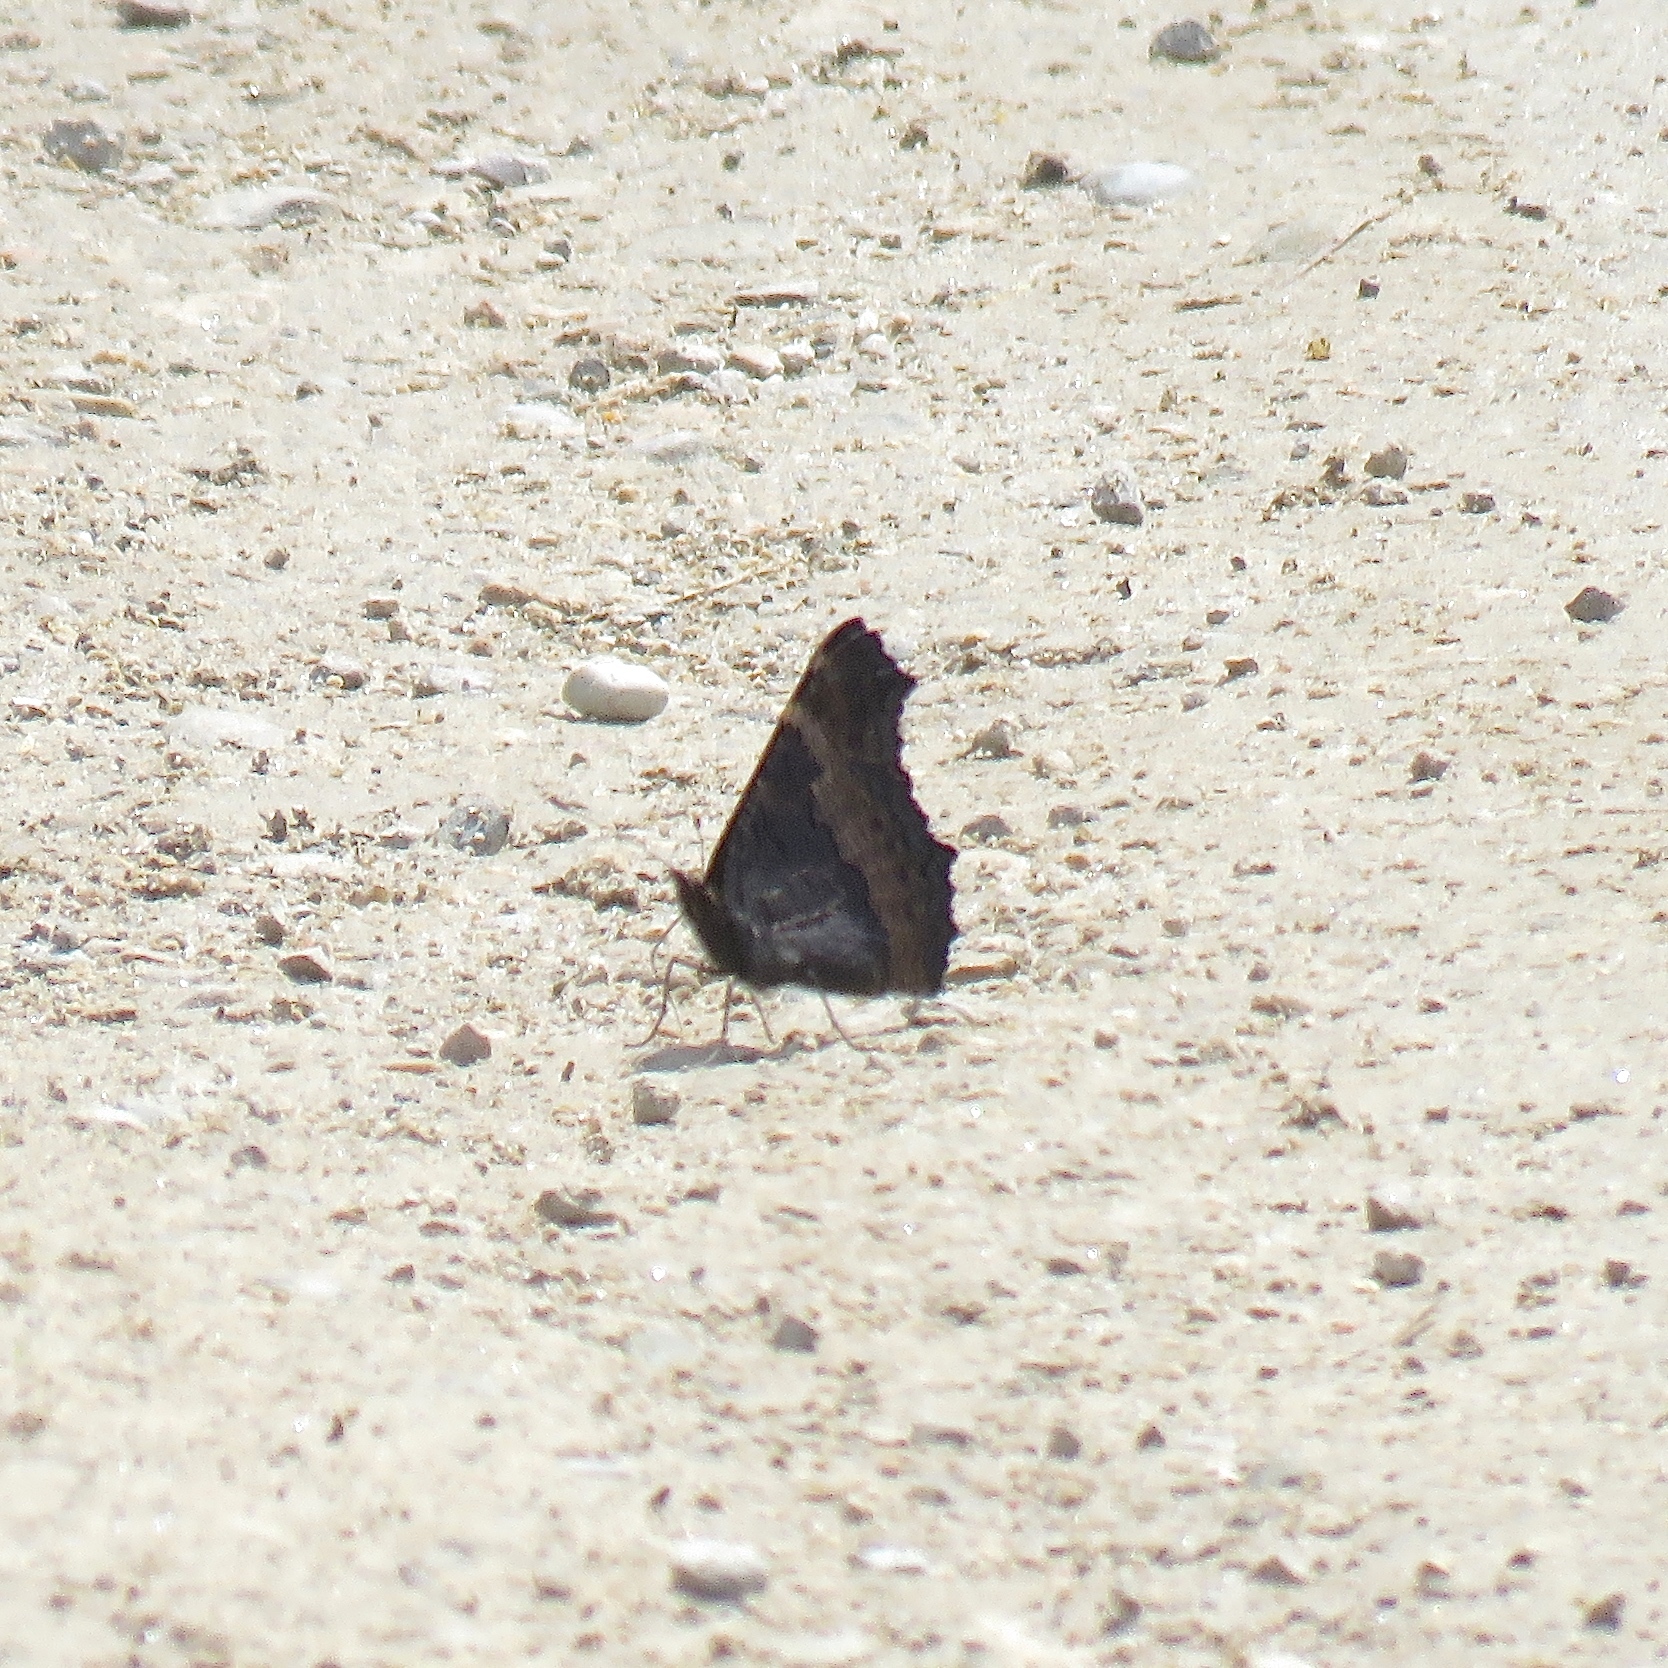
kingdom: Animalia
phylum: Arthropoda
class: Insecta
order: Lepidoptera
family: Nymphalidae
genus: Aglais
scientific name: Aglais milberti
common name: Milbert's tortoiseshell
